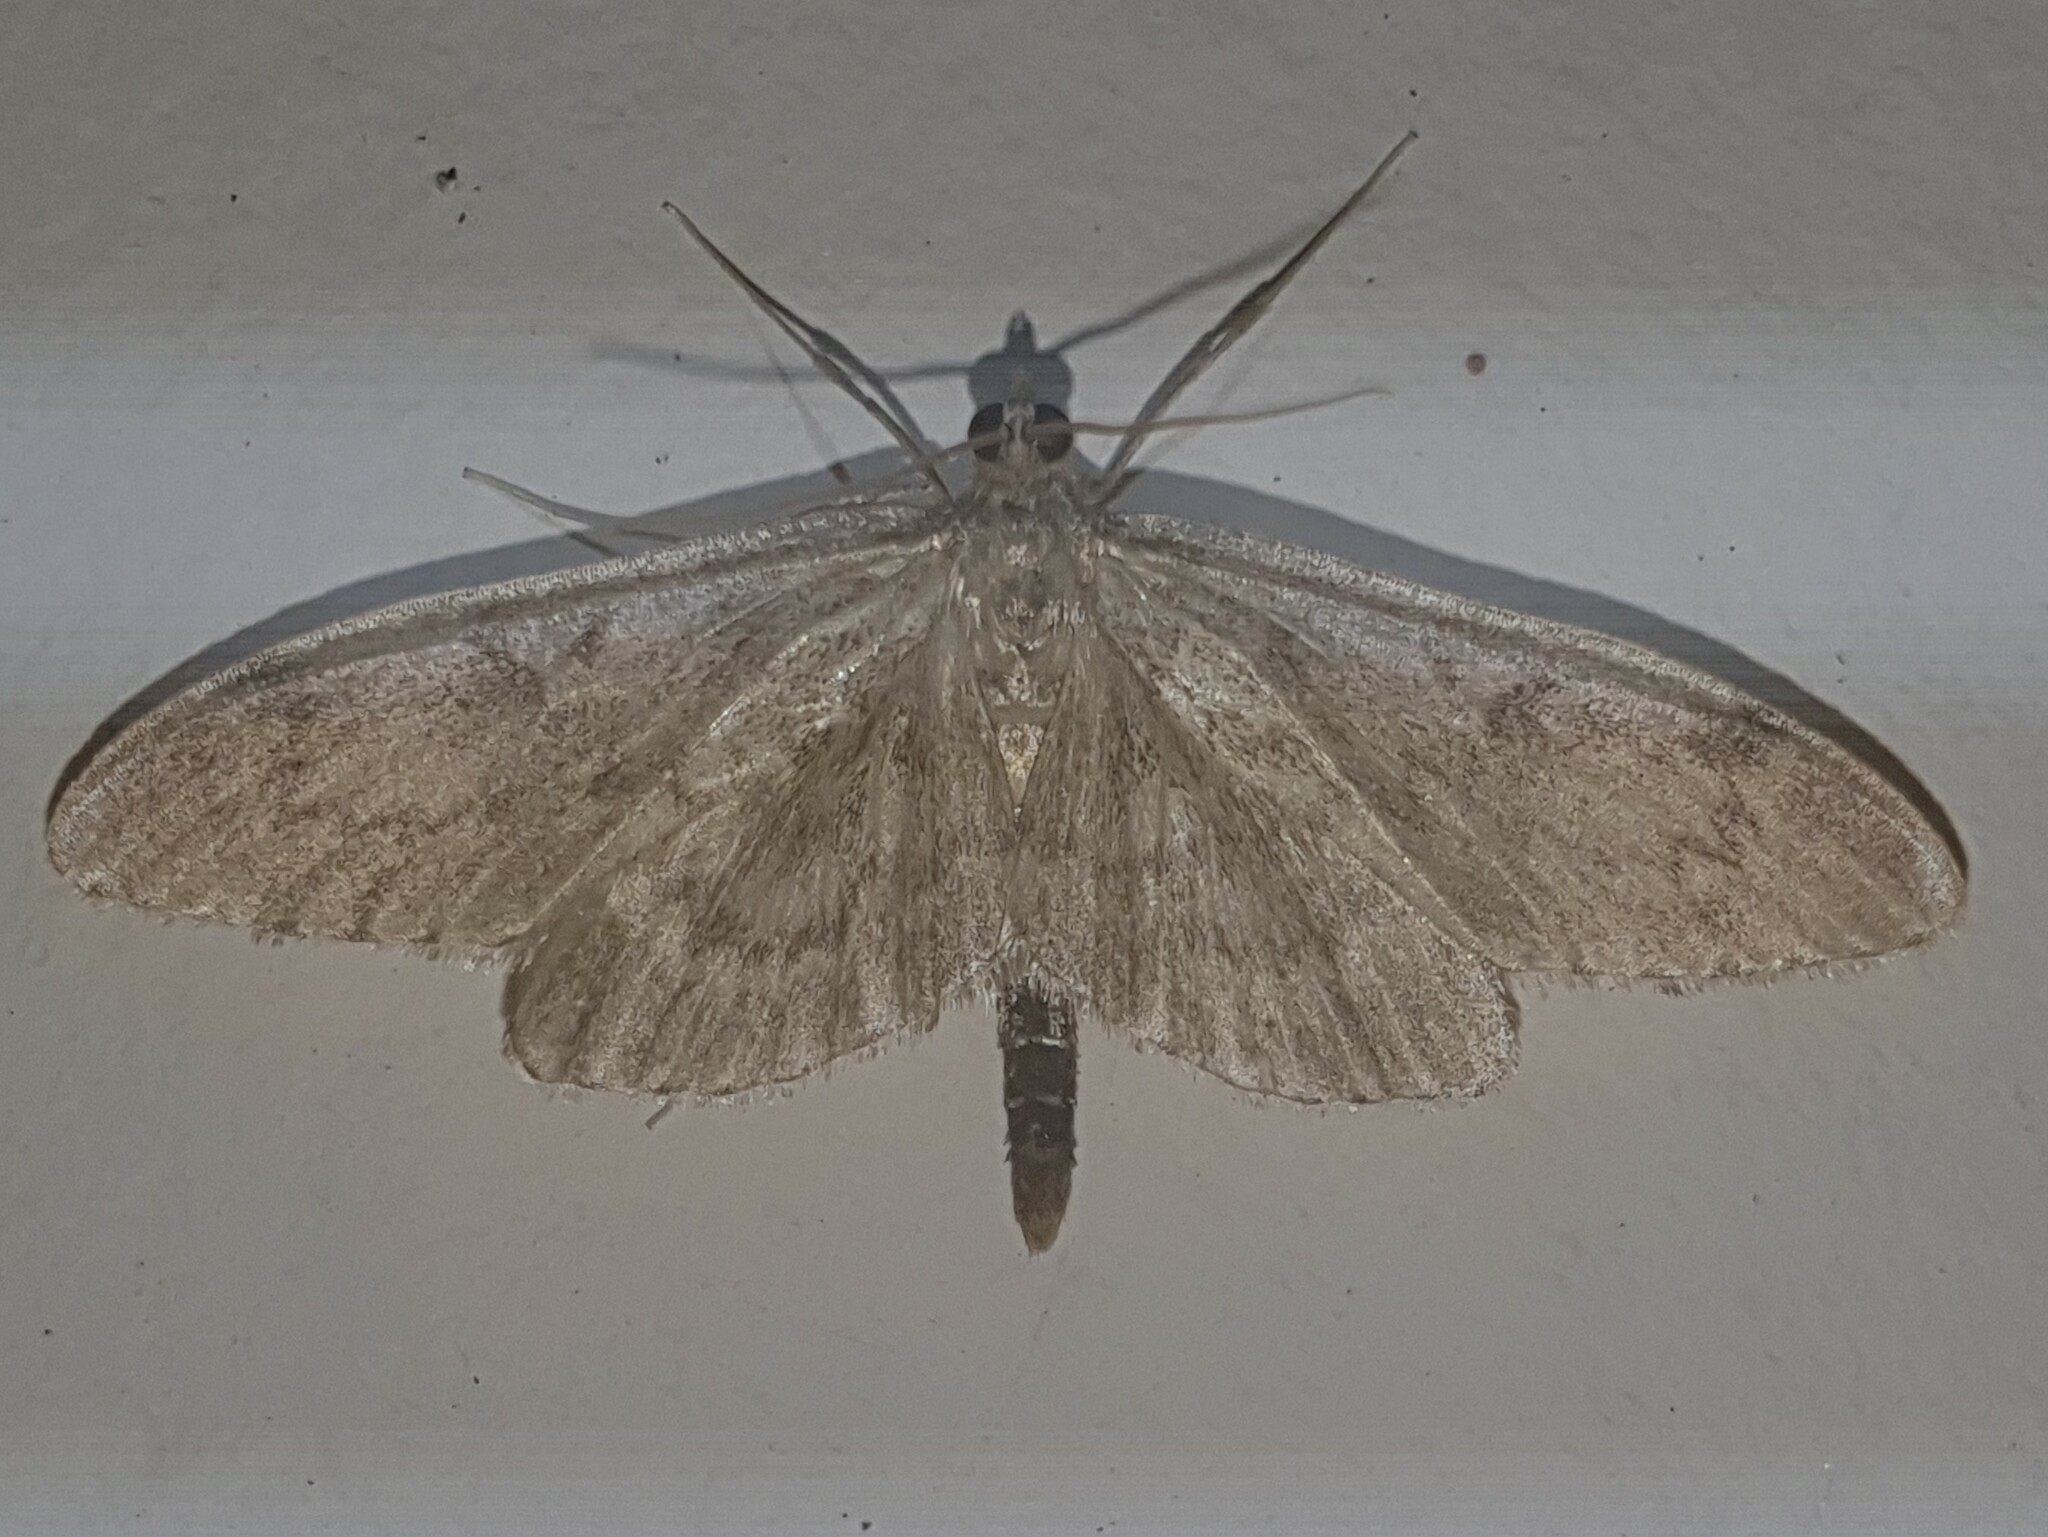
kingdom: Animalia
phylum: Arthropoda
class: Insecta
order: Lepidoptera
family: Crambidae
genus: Anania
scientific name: Anania lancealis
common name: Long-winged pearl
